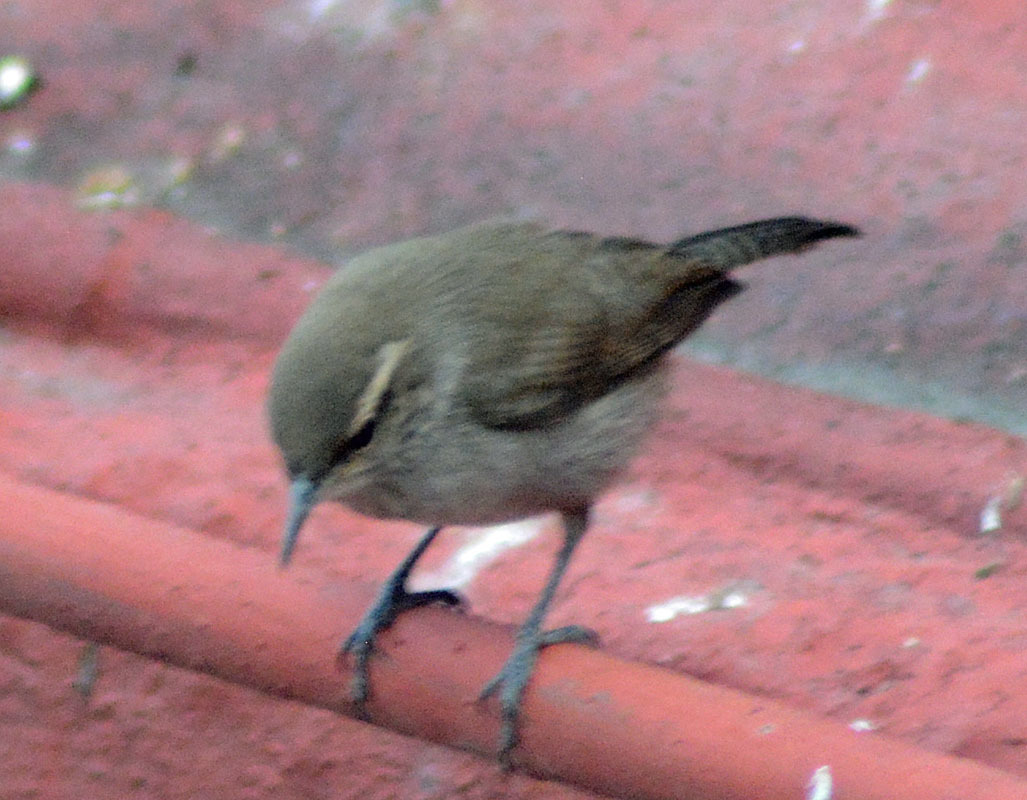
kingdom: Animalia
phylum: Chordata
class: Aves
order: Passeriformes
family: Troglodytidae
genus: Thryomanes
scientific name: Thryomanes bewickii
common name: Bewick's wren
